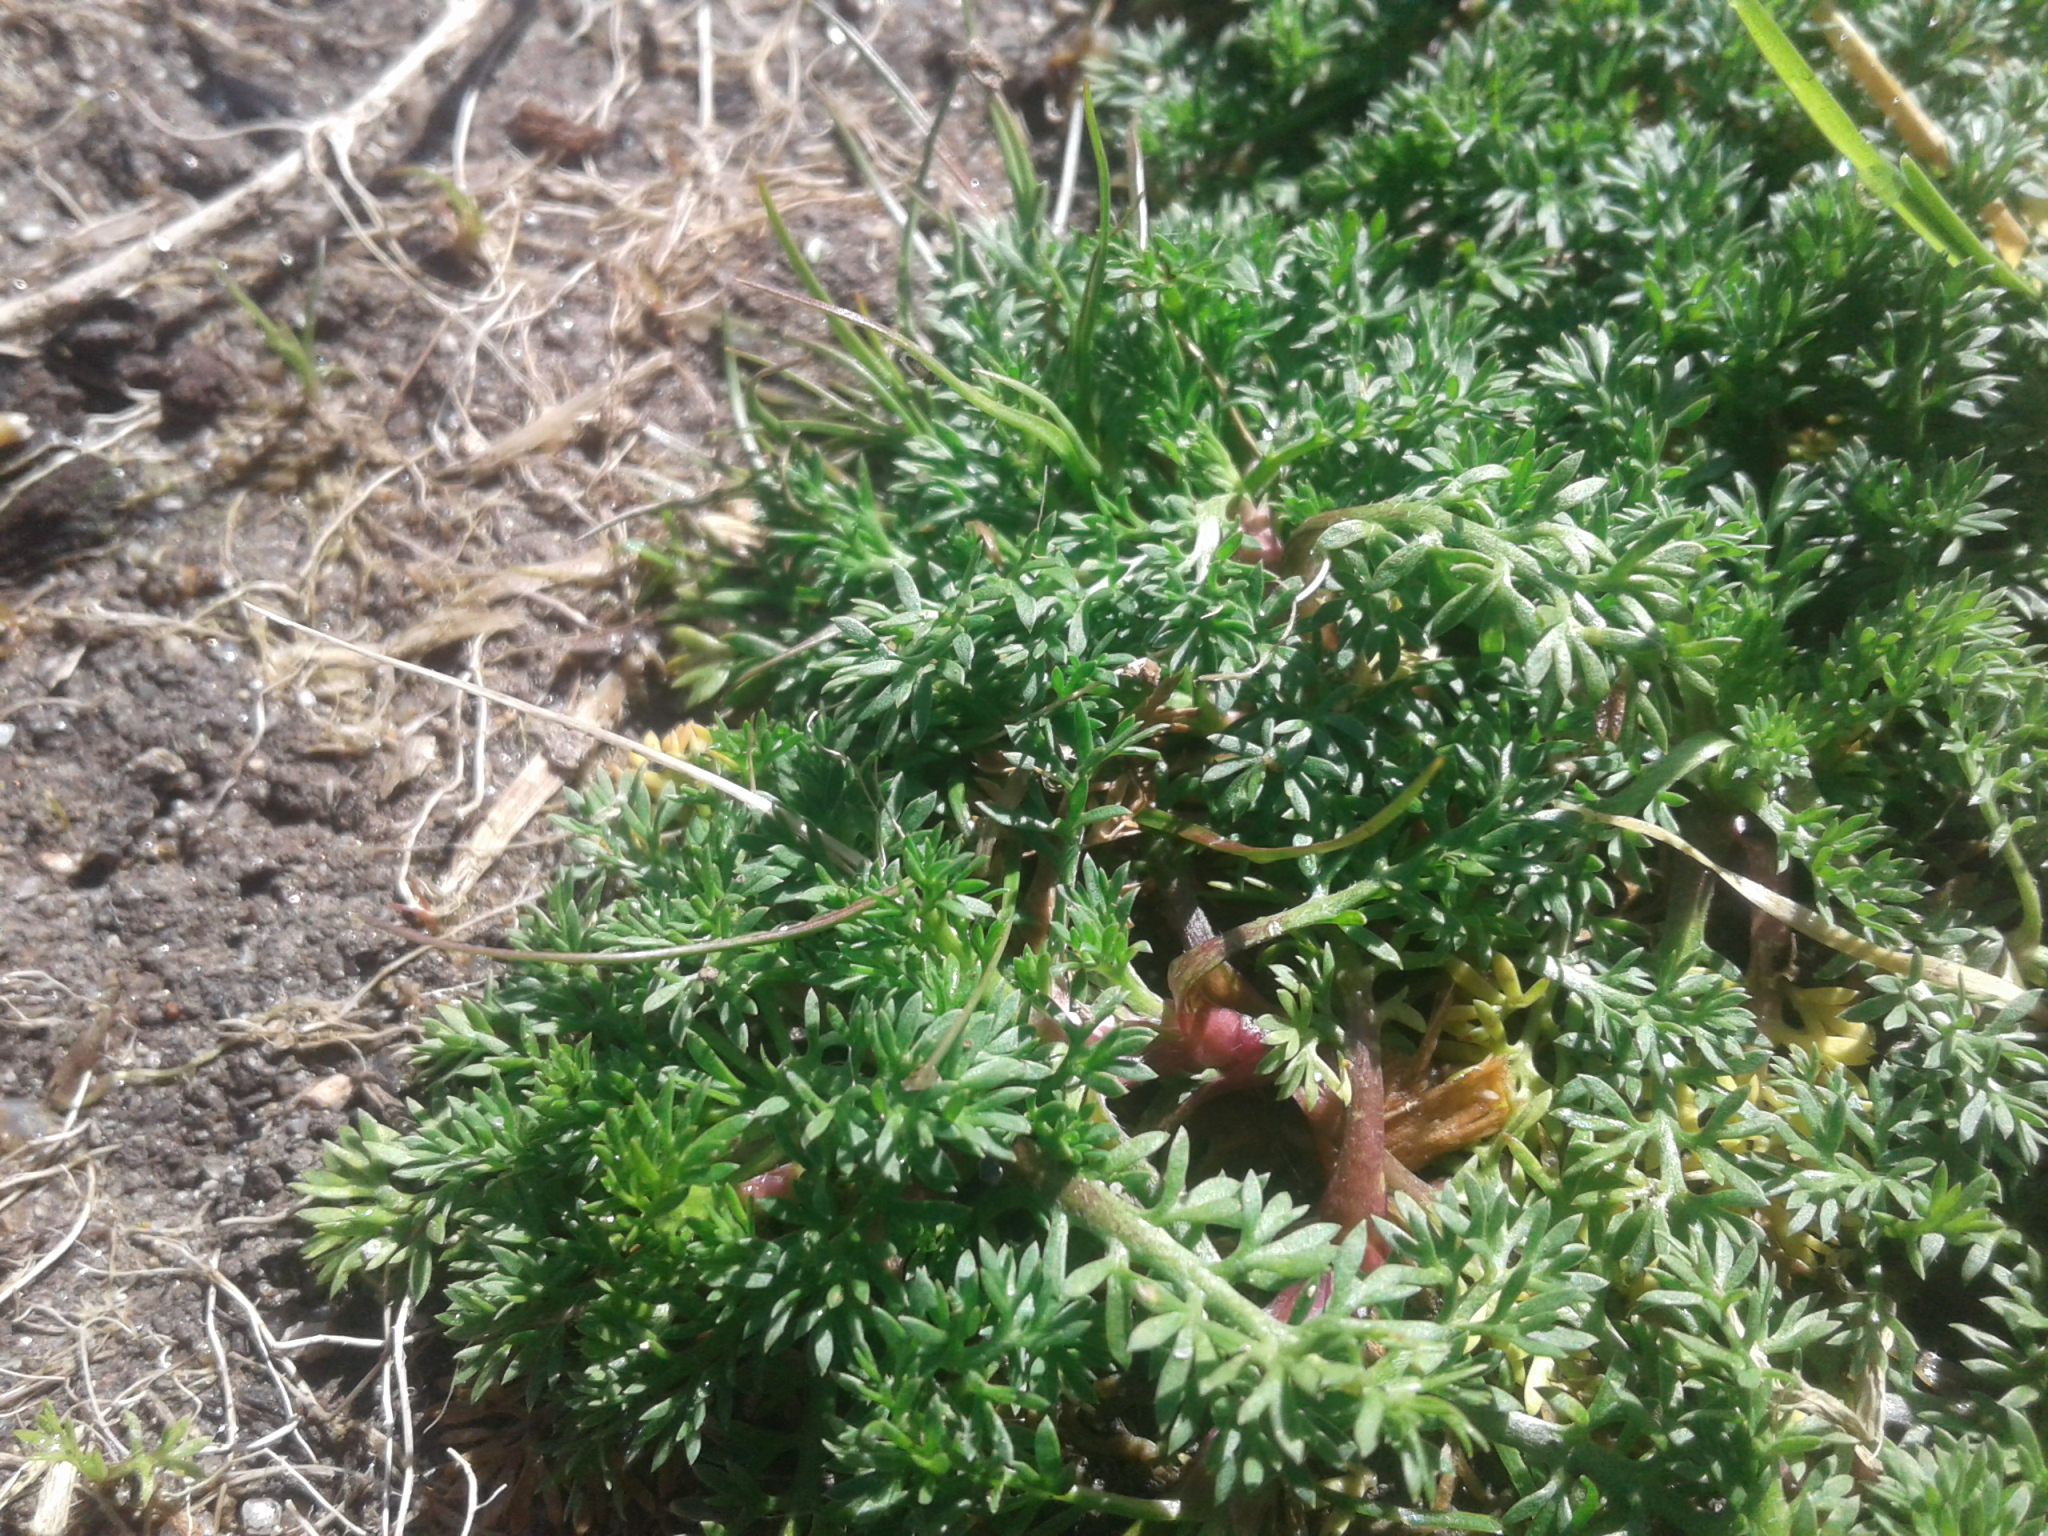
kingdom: Plantae
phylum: Tracheophyta
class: Magnoliopsida
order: Asterales
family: Asteraceae
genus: Soliva
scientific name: Soliva sessilis
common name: Field burrweed
